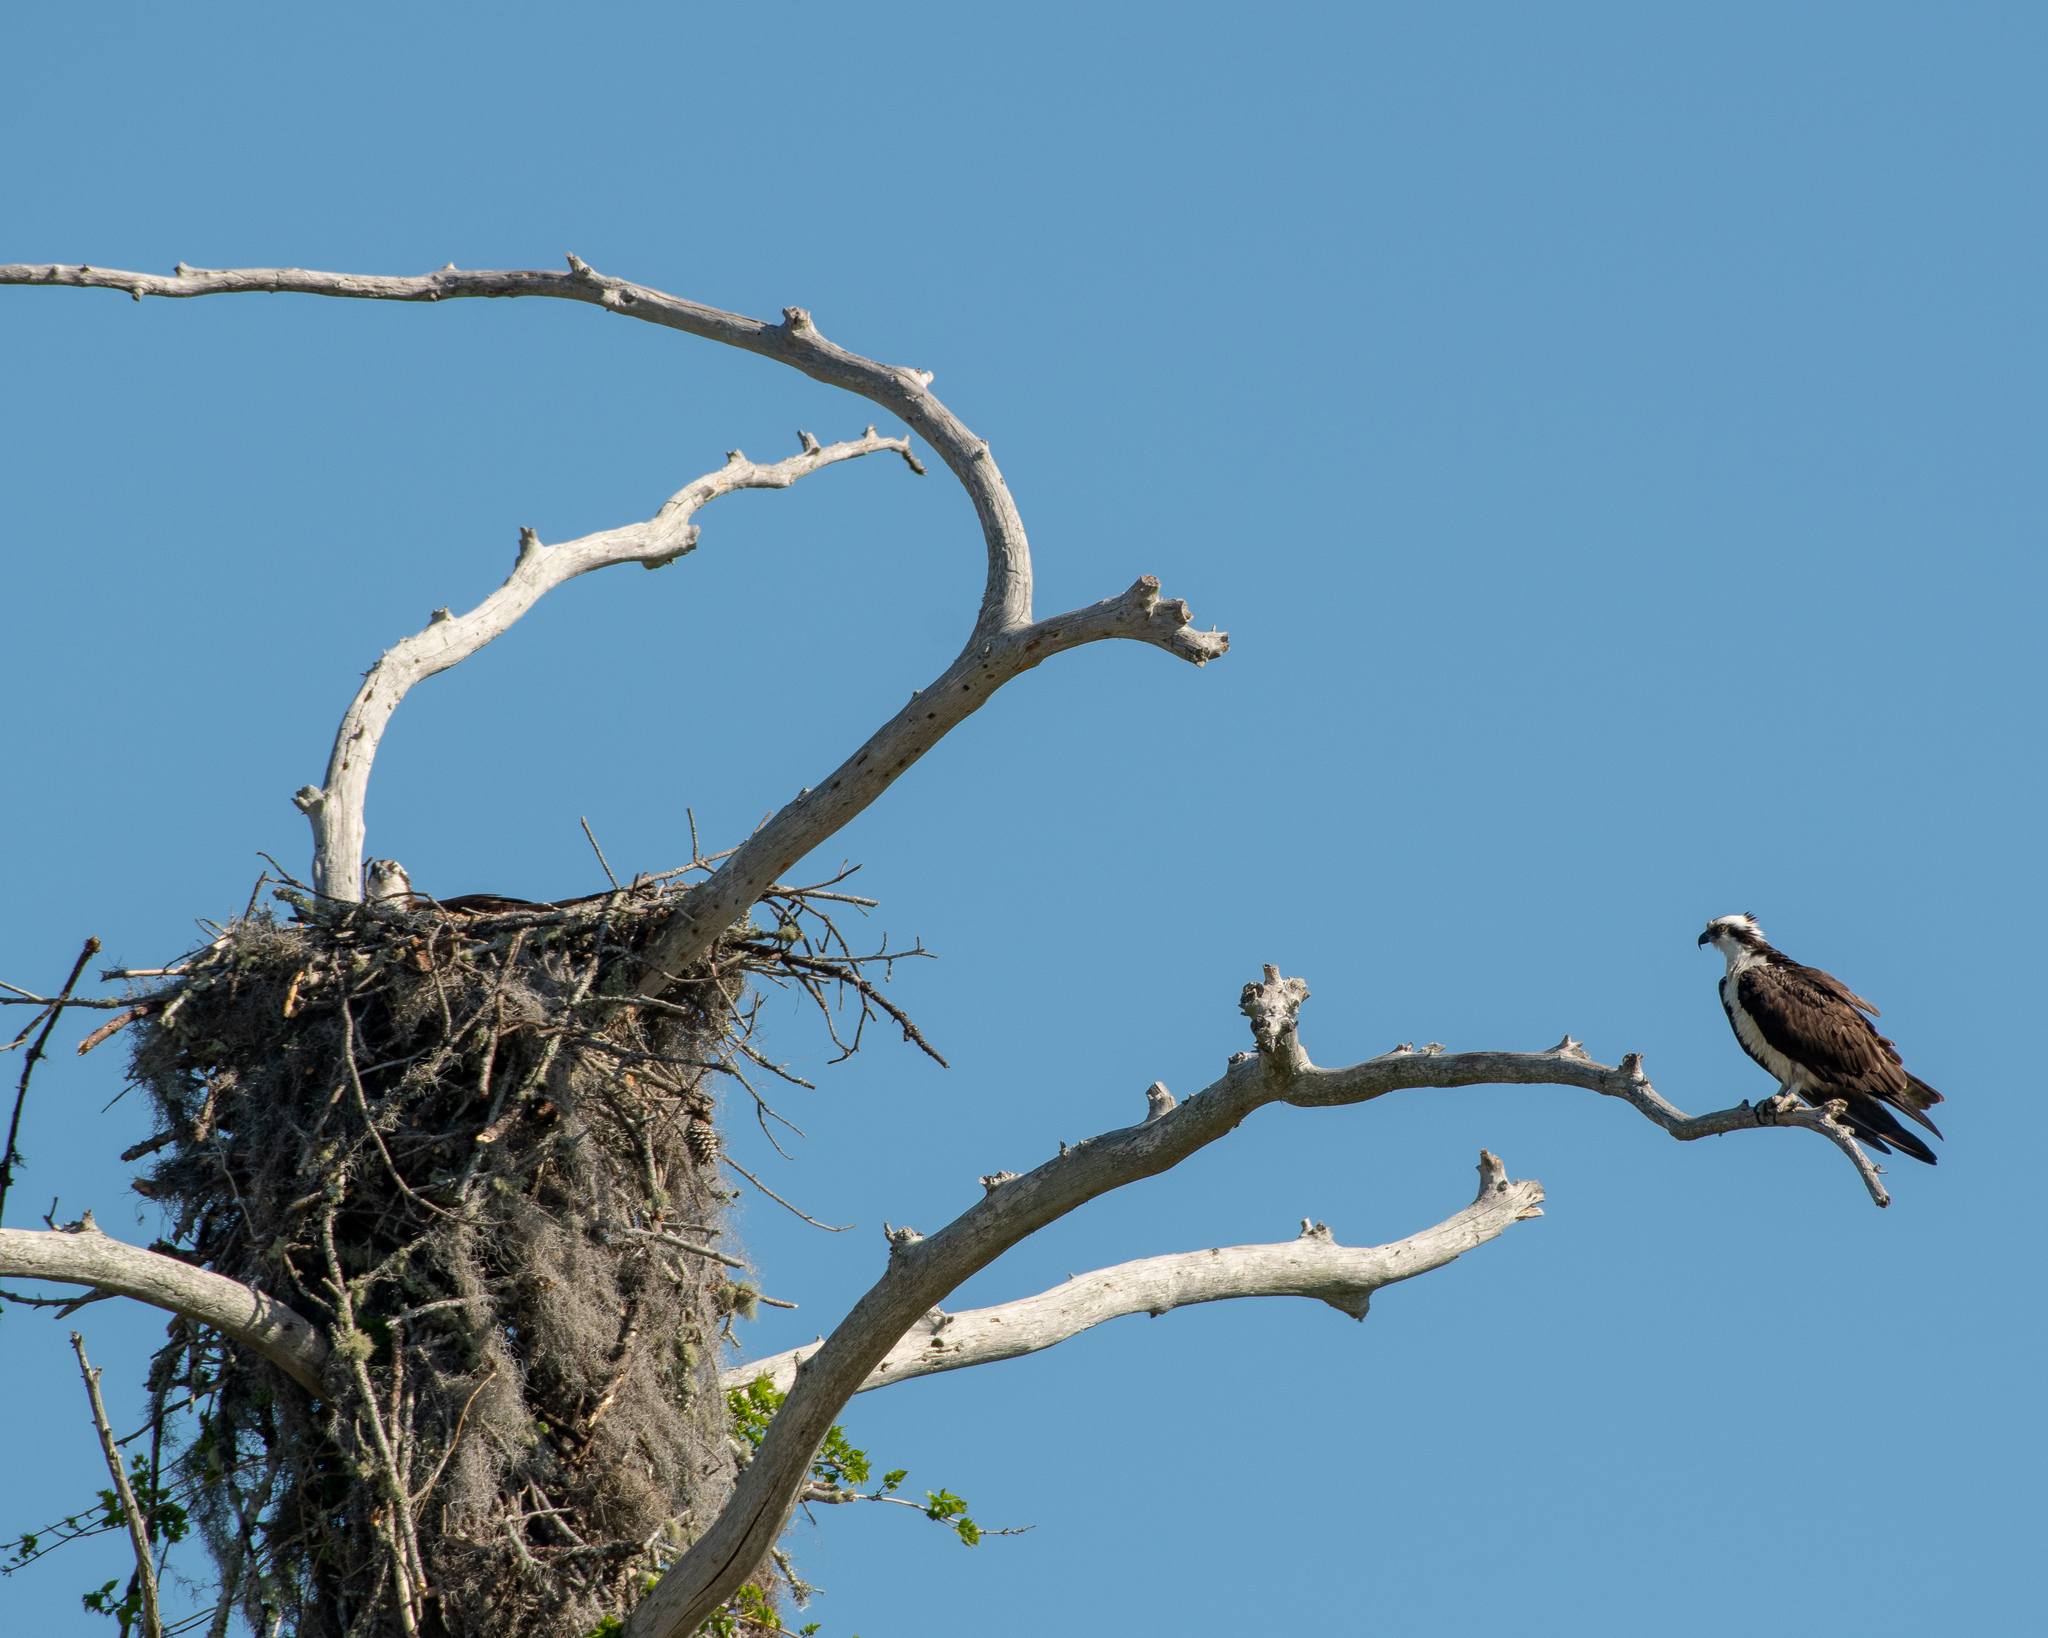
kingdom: Animalia
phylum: Chordata
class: Aves
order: Accipitriformes
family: Pandionidae
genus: Pandion
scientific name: Pandion haliaetus
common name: Osprey
